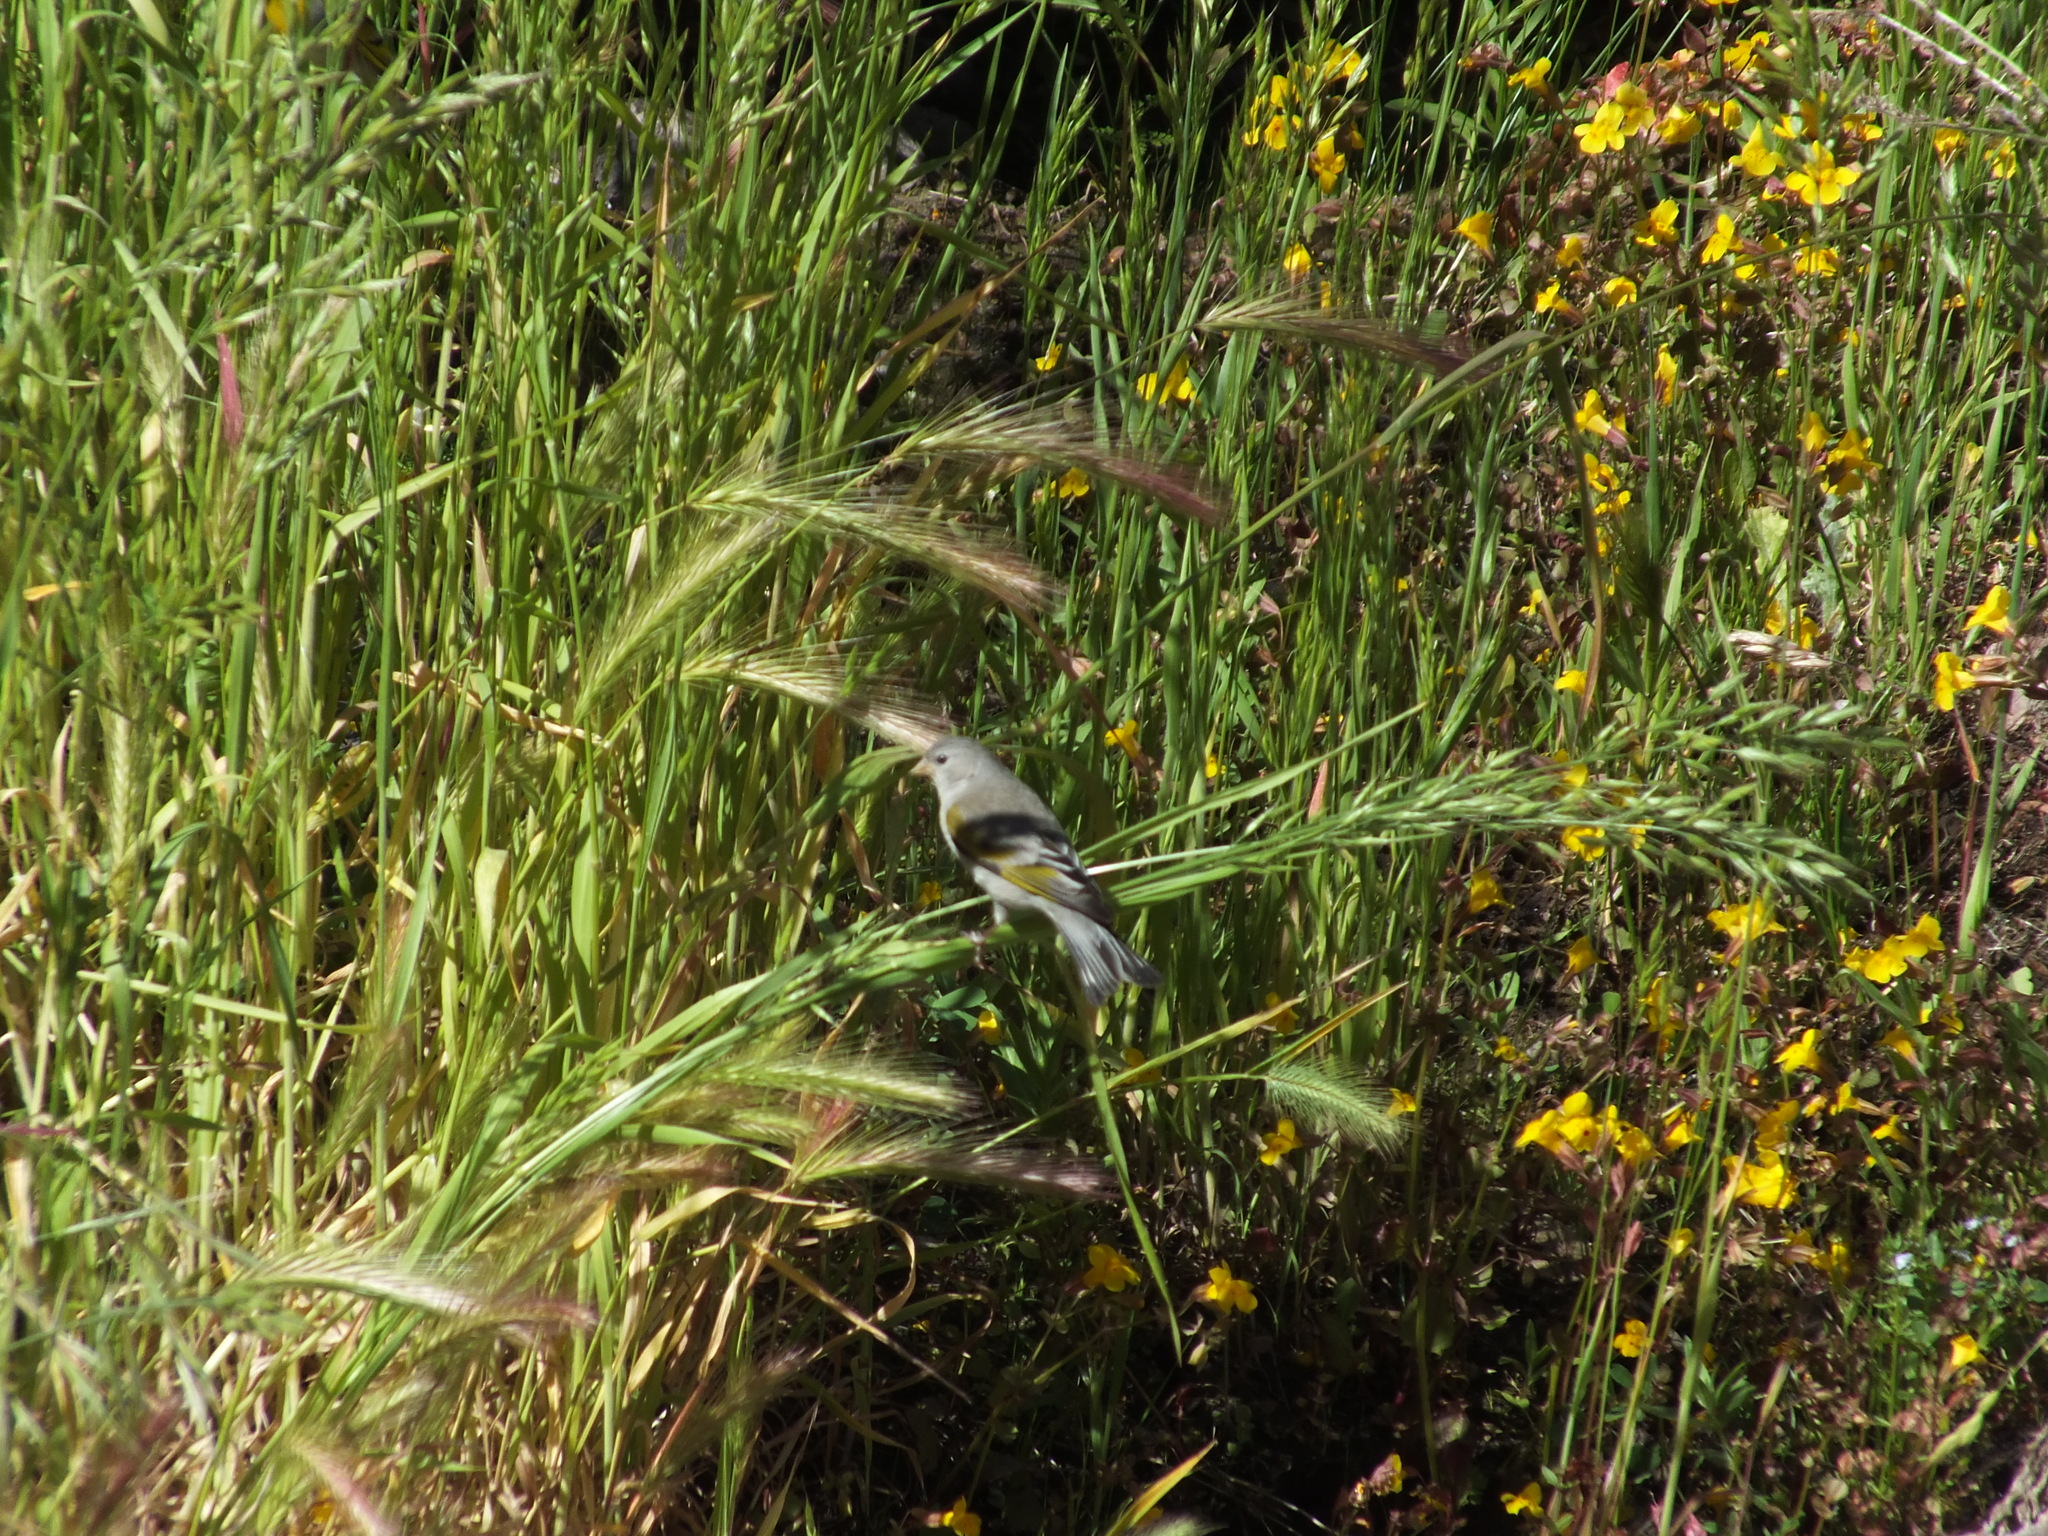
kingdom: Animalia
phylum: Chordata
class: Aves
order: Passeriformes
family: Fringillidae
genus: Spinus
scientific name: Spinus lawrencei
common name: Lawrence's goldfinch
